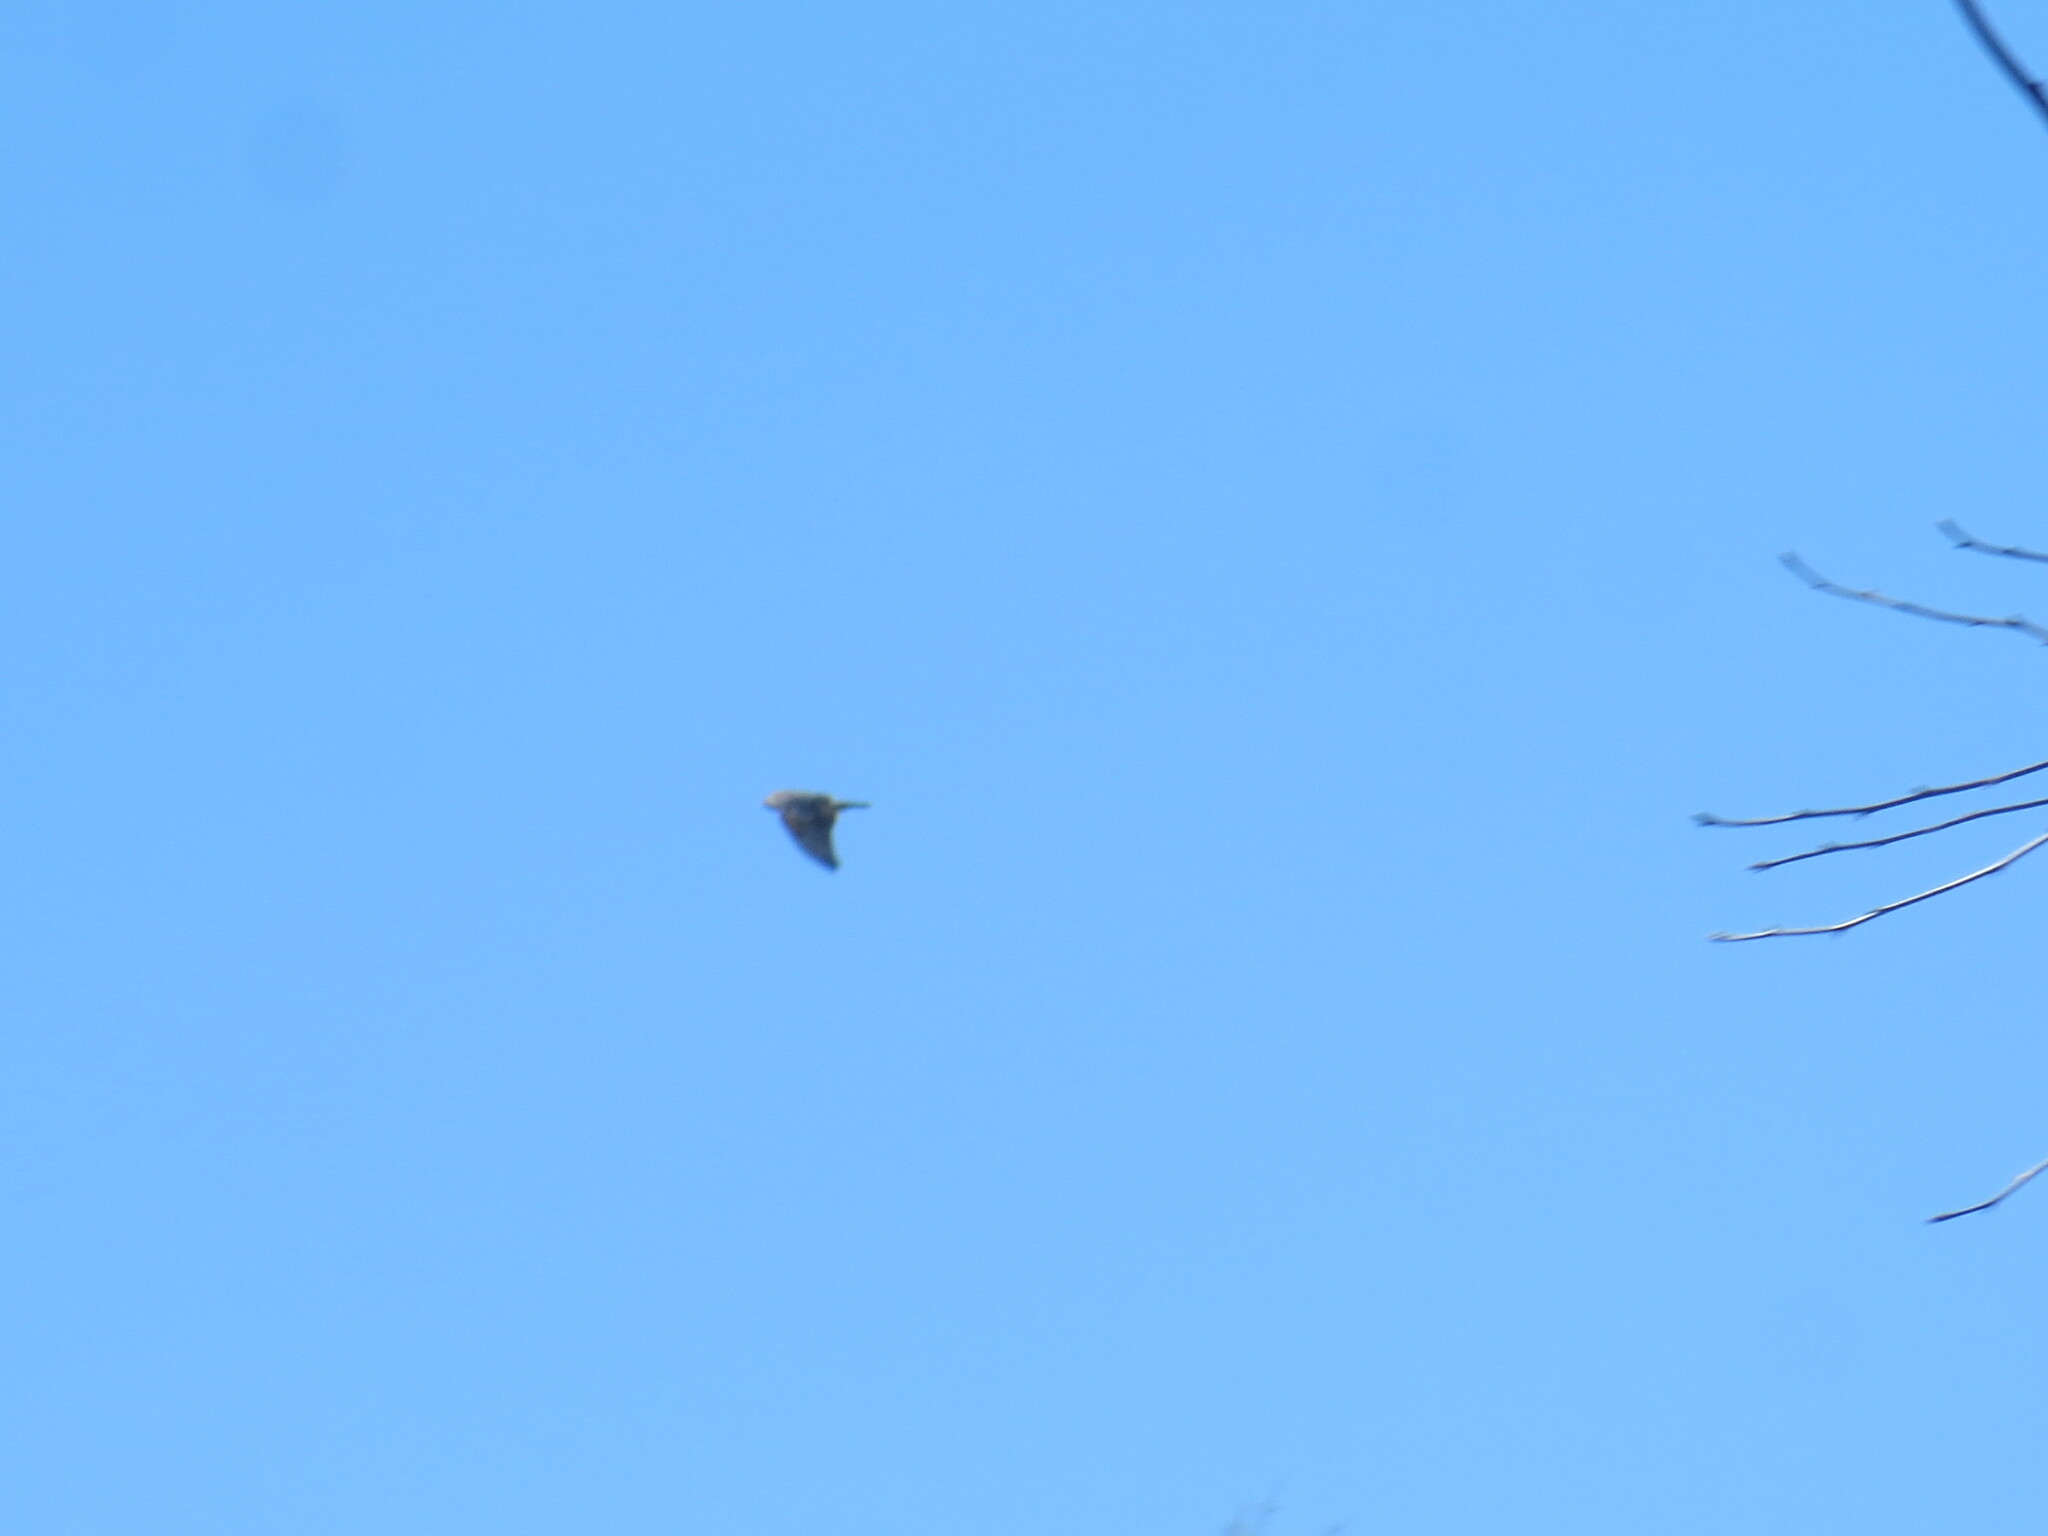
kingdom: Animalia
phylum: Chordata
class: Aves
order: Accipitriformes
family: Accipitridae
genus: Buteo
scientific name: Buteo lineatus
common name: Red-shouldered hawk
